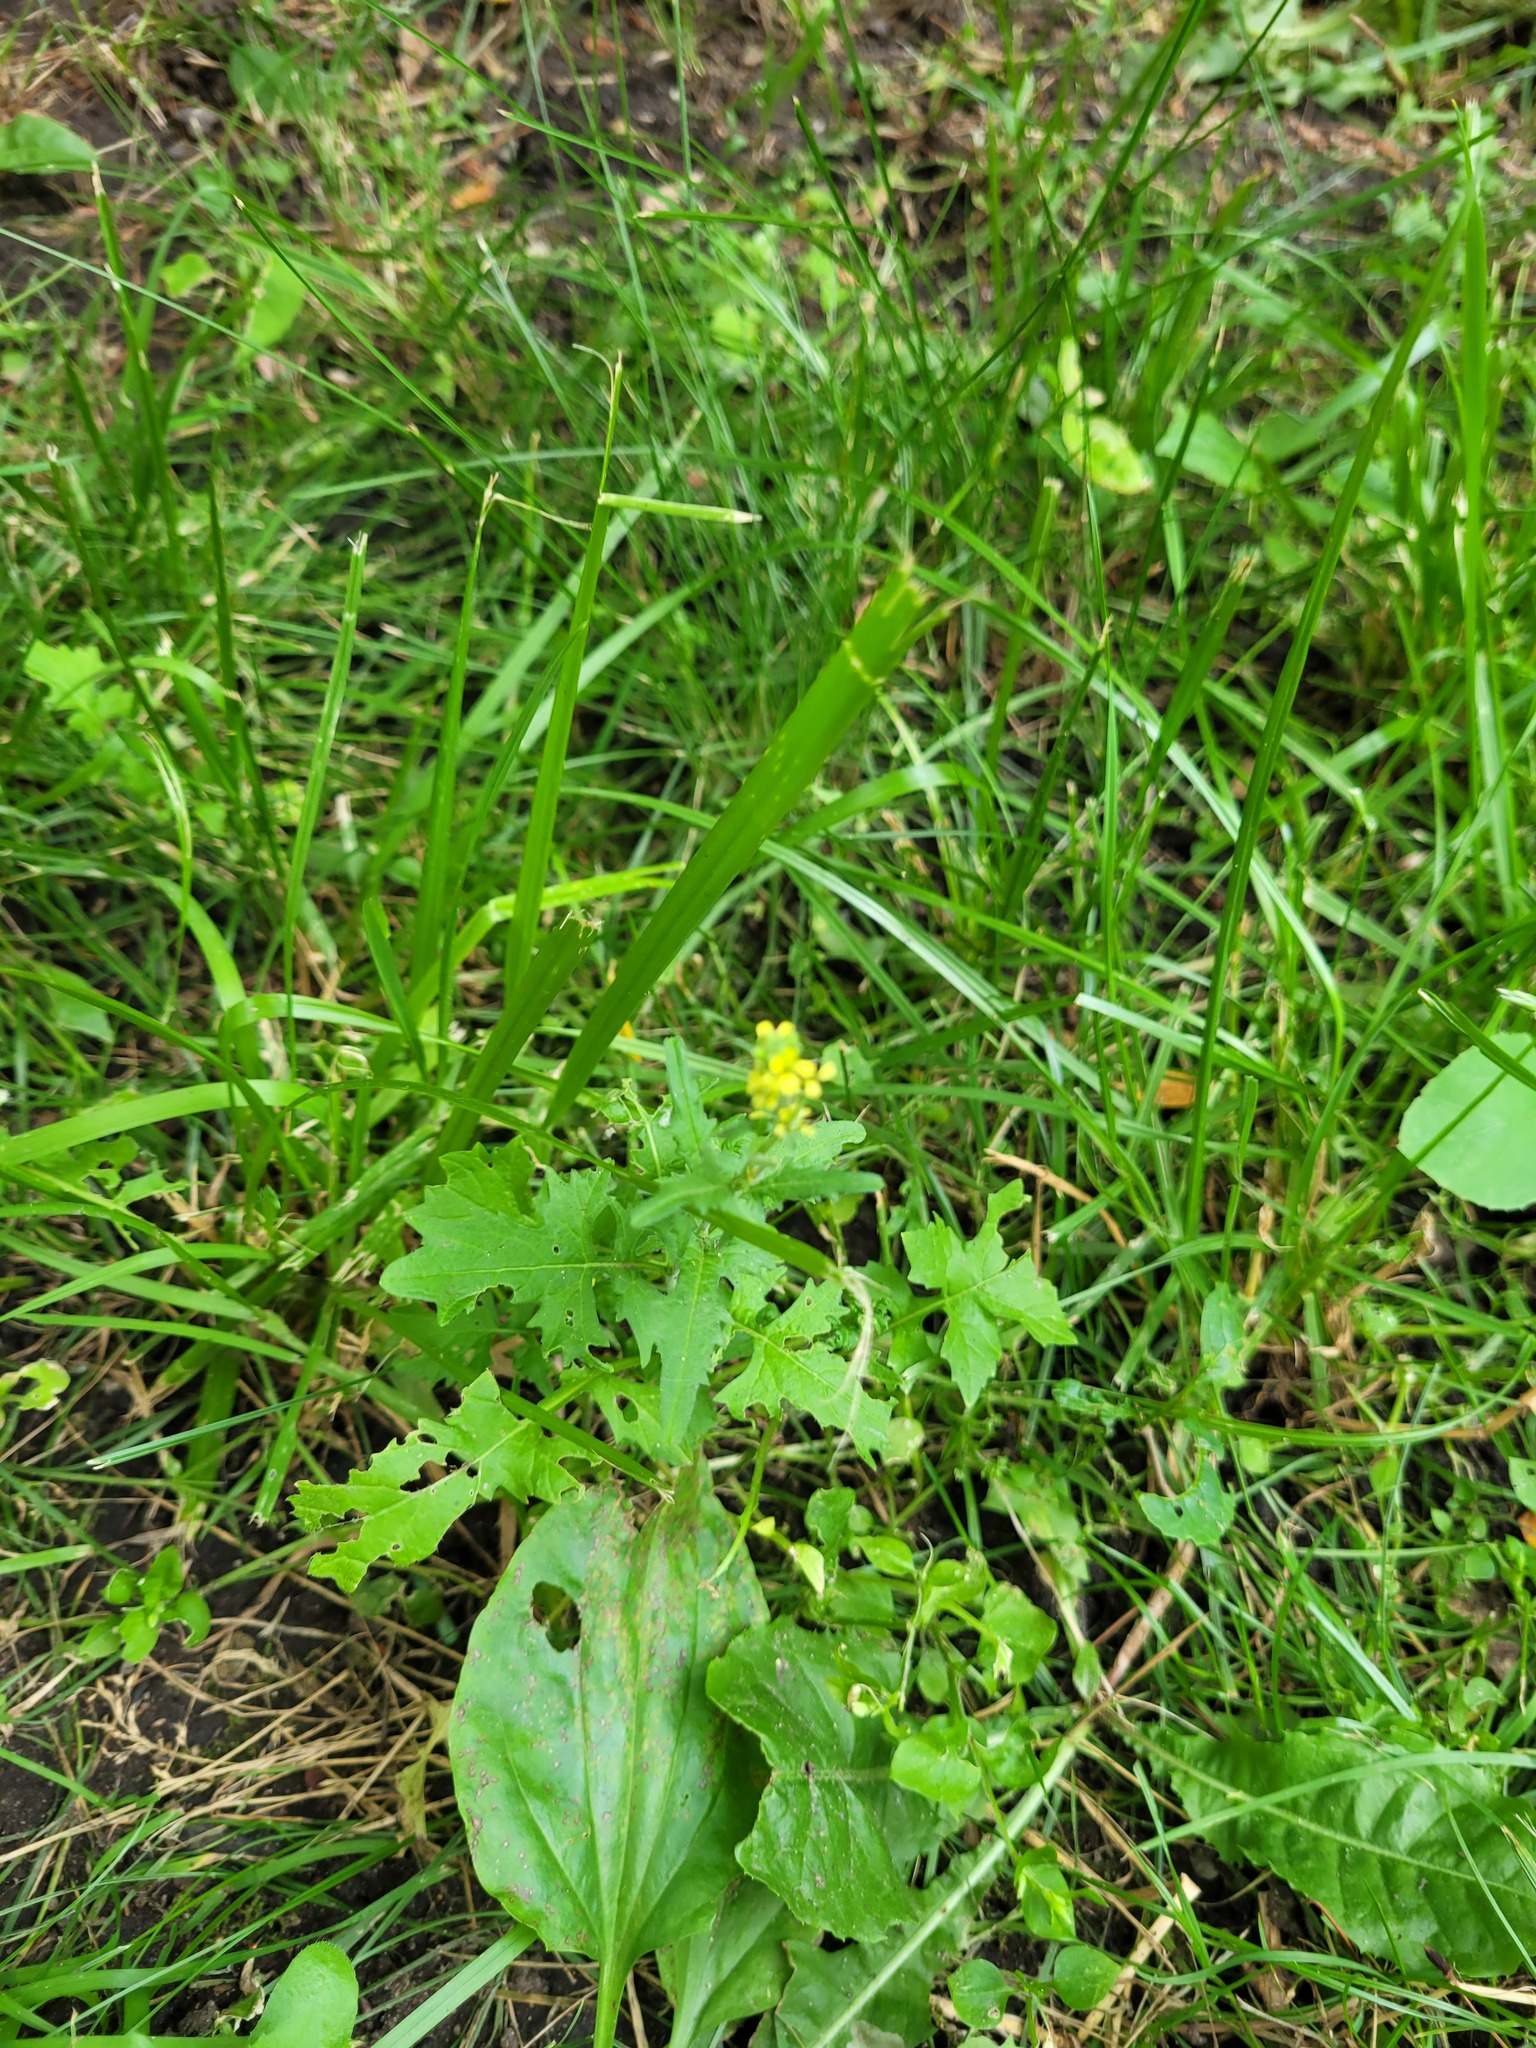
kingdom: Plantae
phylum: Tracheophyta
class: Magnoliopsida
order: Brassicales
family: Brassicaceae
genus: Sisymbrium
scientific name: Sisymbrium officinale
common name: Hedge mustard
